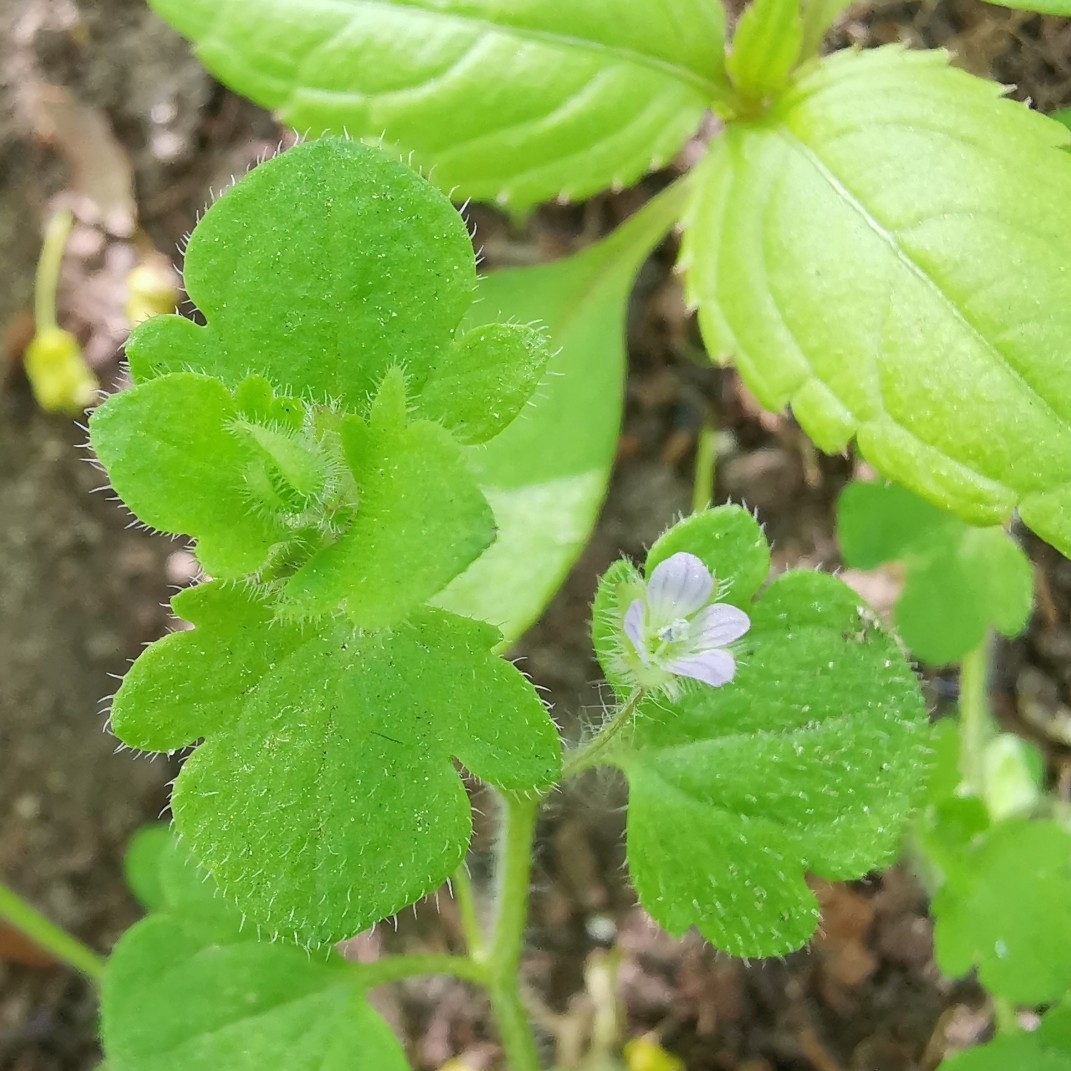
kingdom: Plantae
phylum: Tracheophyta
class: Magnoliopsida
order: Lamiales
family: Plantaginaceae
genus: Veronica
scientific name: Veronica sublobata
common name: False ivy-leaved speedwell
